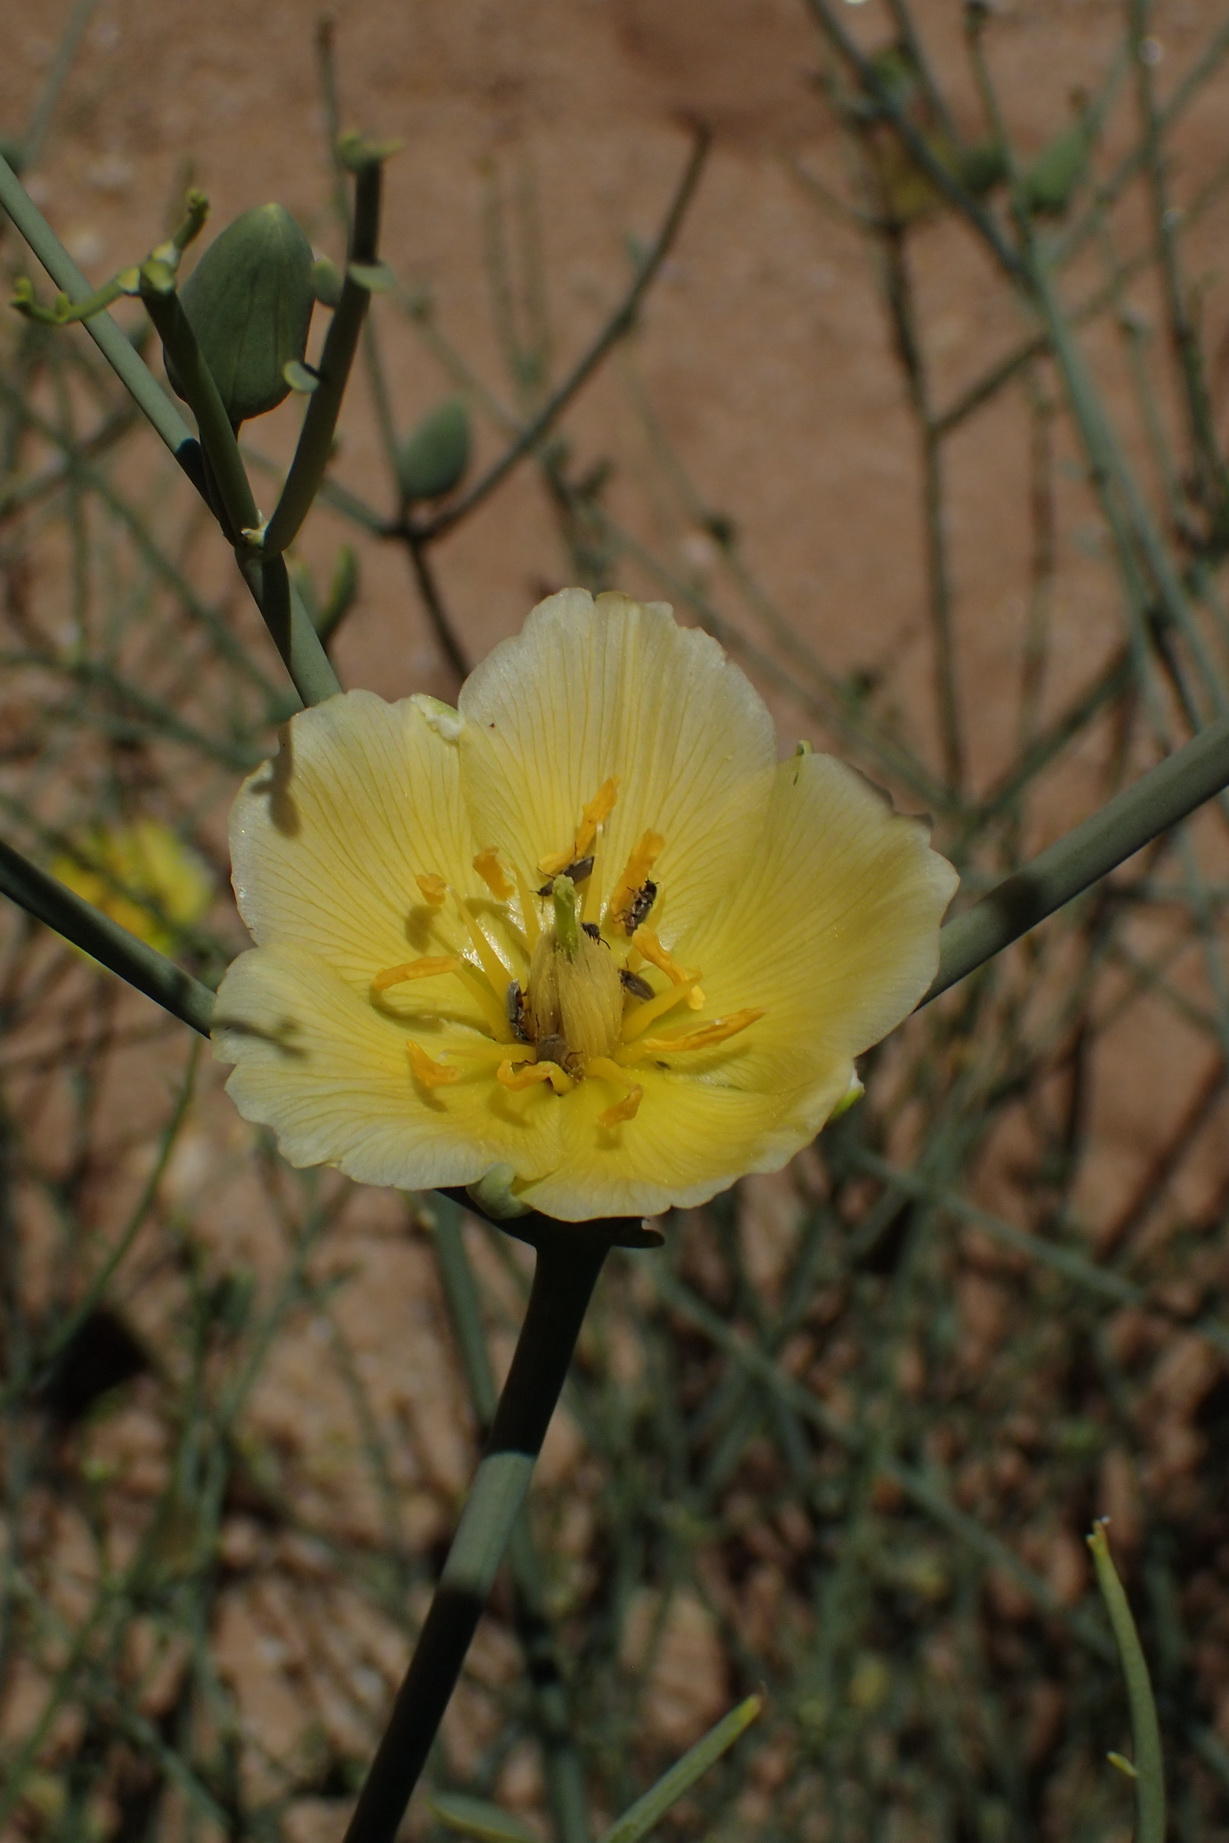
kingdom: Plantae
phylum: Tracheophyta
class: Magnoliopsida
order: Zygophyllales
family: Zygophyllaceae
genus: Sisyndite
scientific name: Sisyndite spartea
